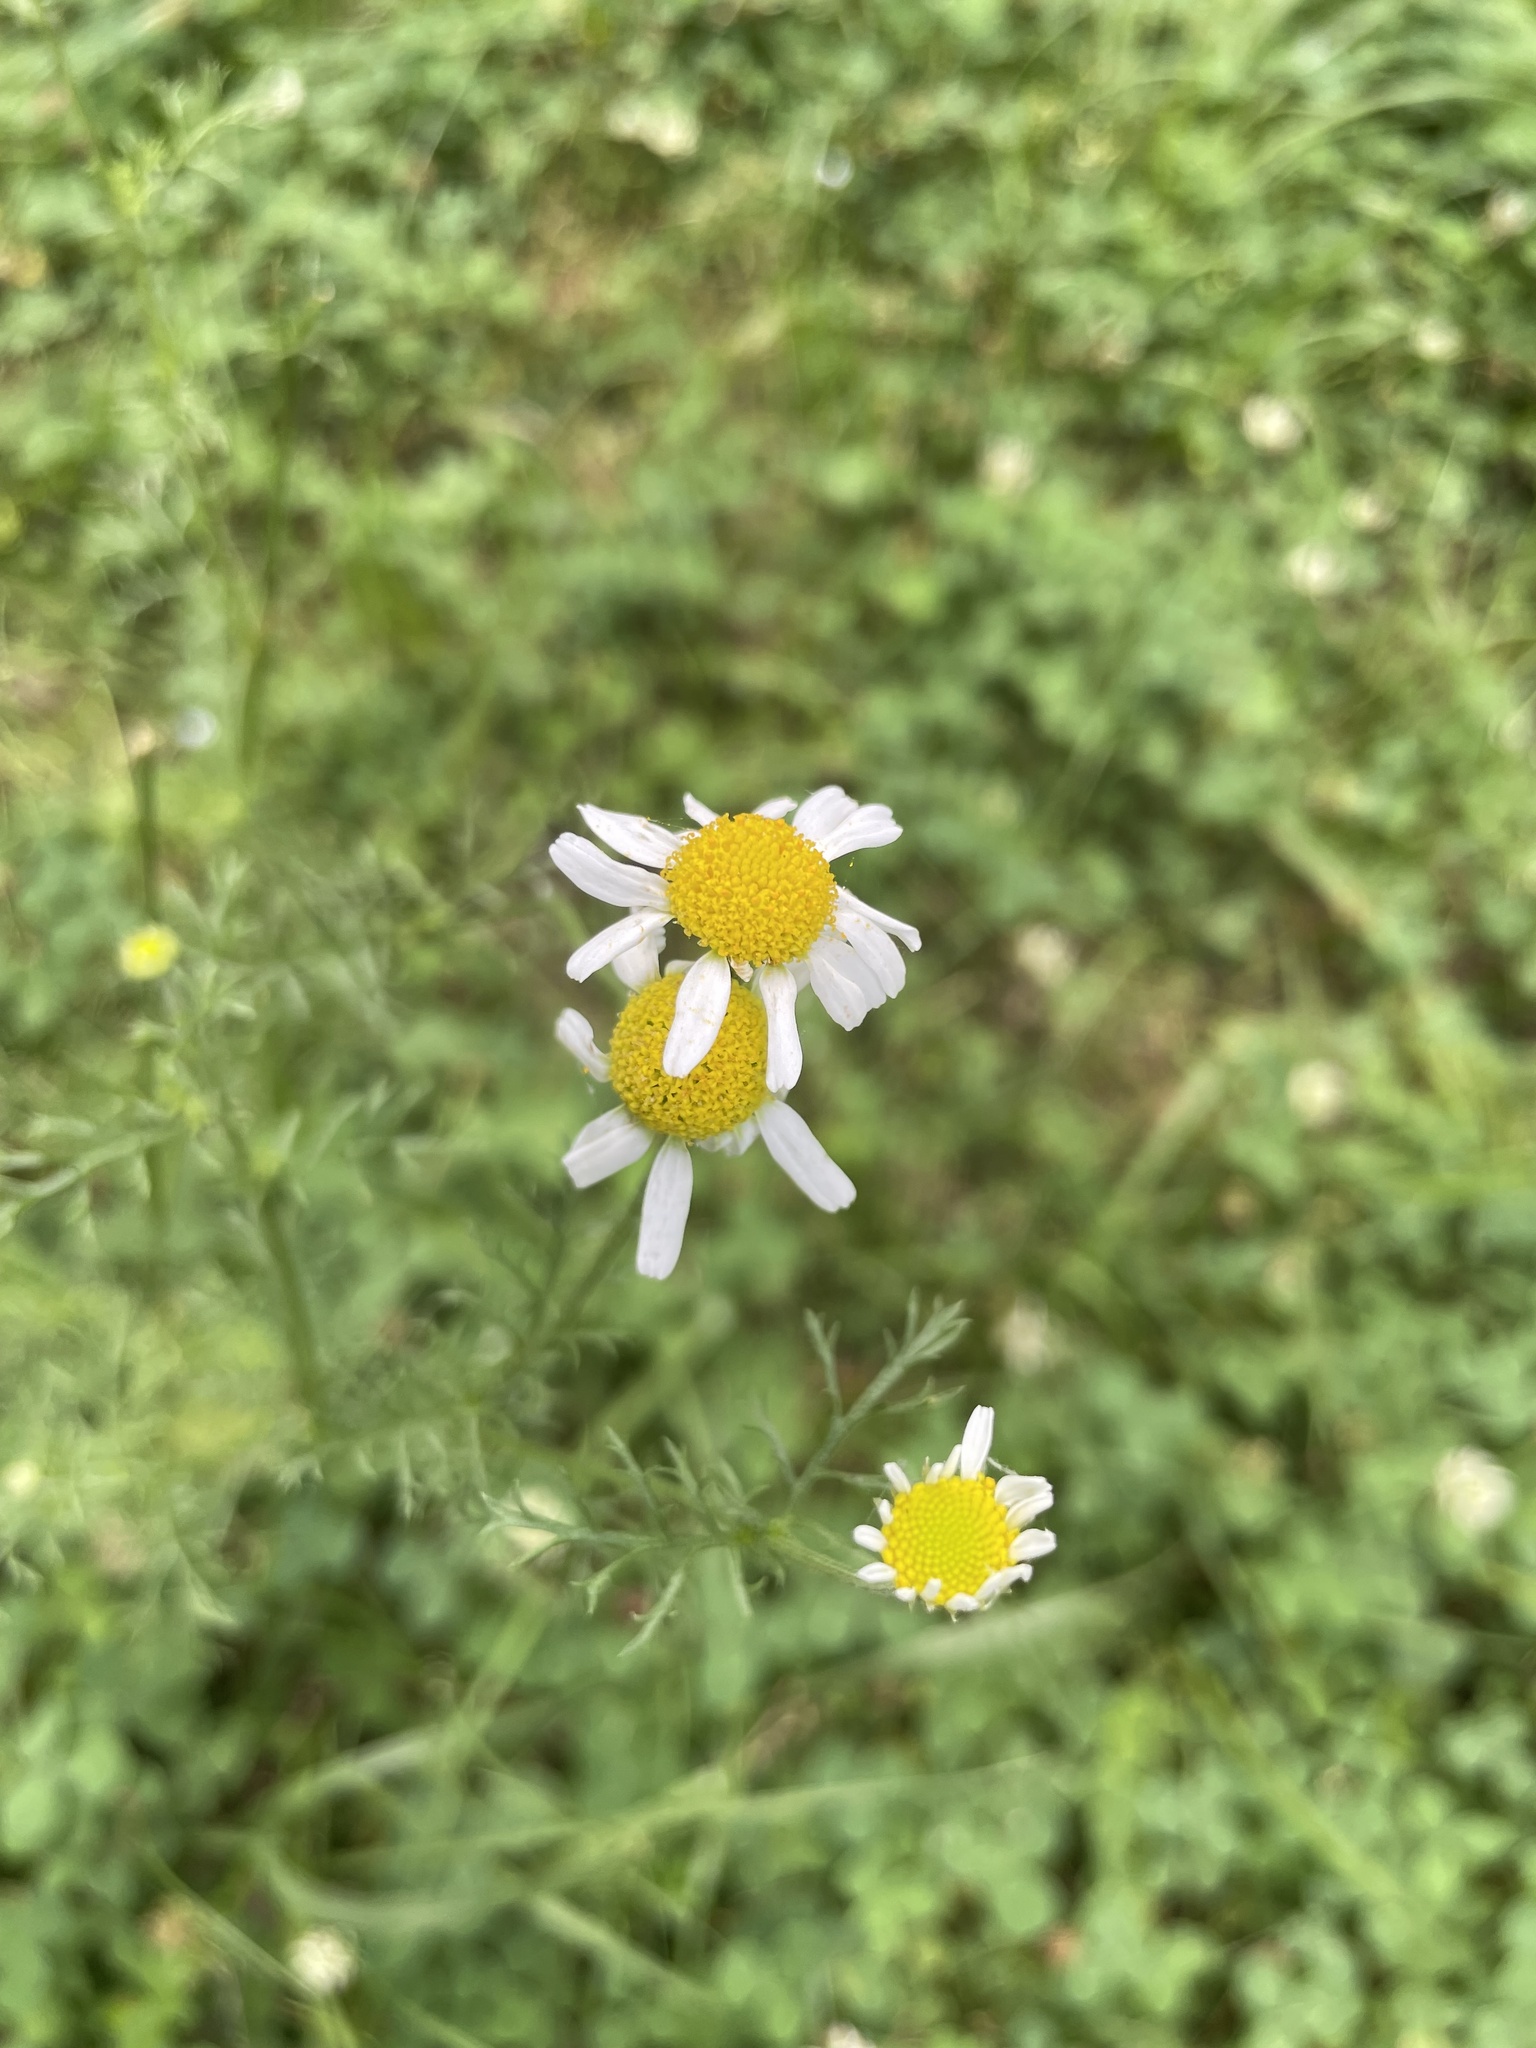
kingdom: Plantae
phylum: Tracheophyta
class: Magnoliopsida
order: Asterales
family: Asteraceae
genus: Anthemis
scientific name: Anthemis cotula
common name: Stinking chamomile
